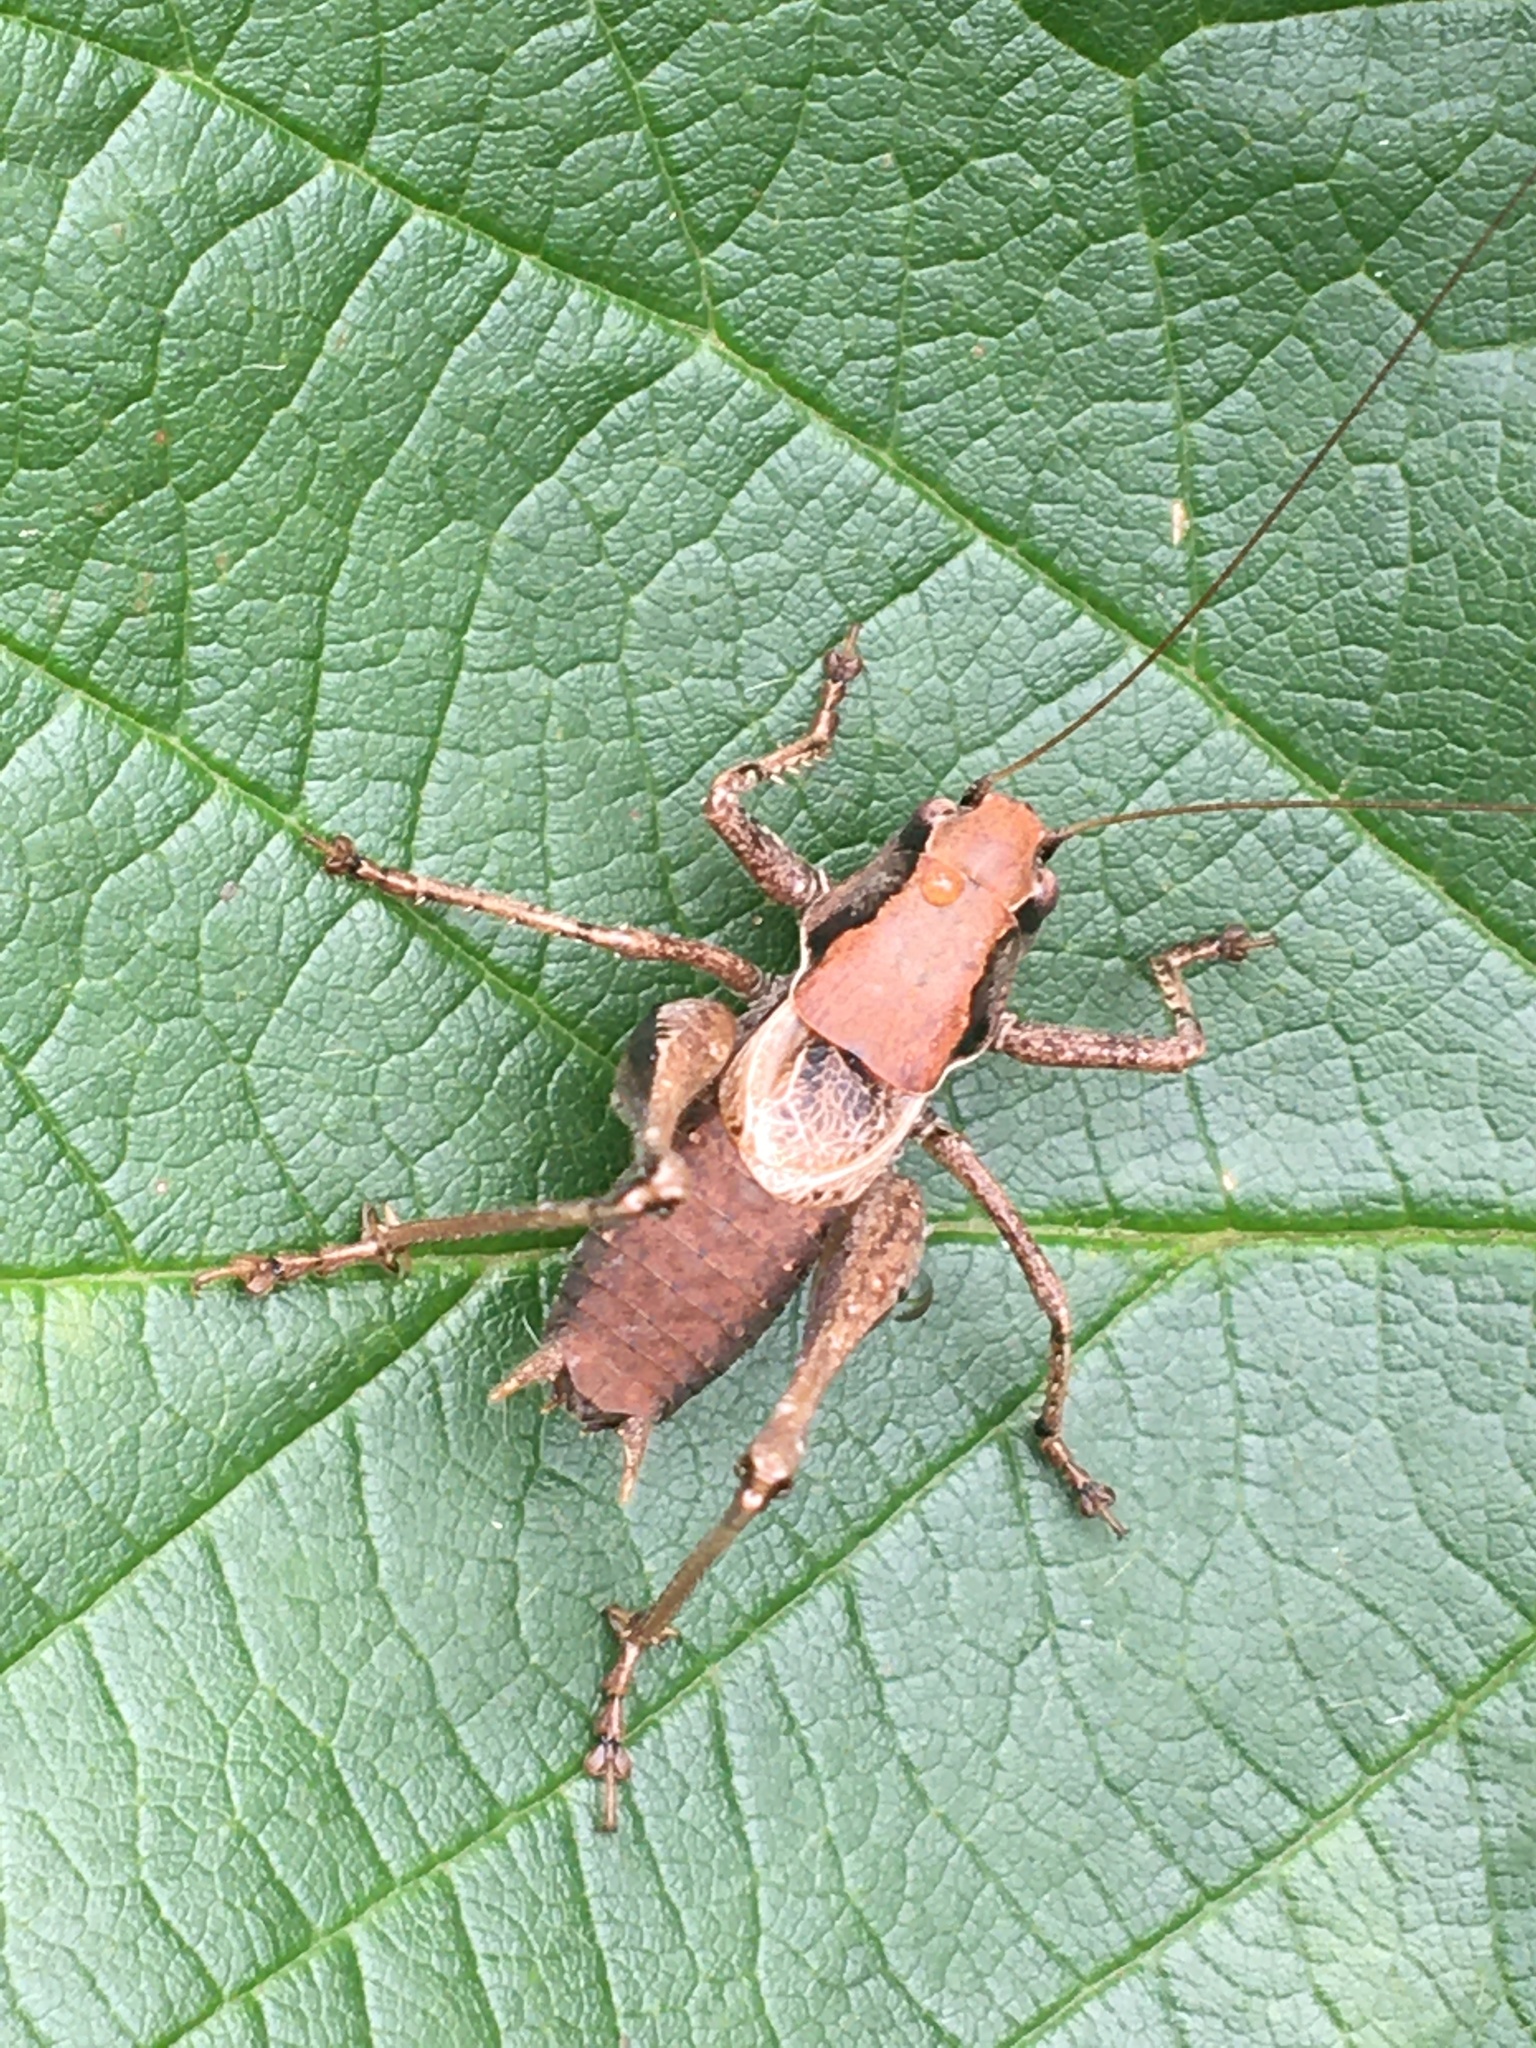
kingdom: Animalia
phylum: Arthropoda
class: Insecta
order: Orthoptera
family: Tettigoniidae
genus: Pholidoptera
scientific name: Pholidoptera griseoaptera
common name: Dark bush-cricket
